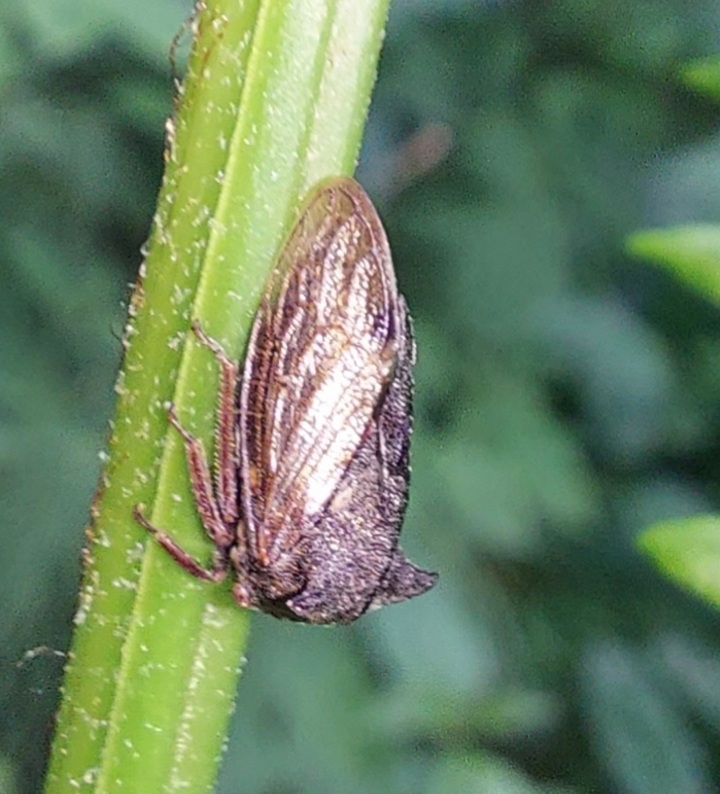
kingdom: Animalia
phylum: Arthropoda
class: Insecta
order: Hemiptera
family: Membracidae
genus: Centrotus
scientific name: Centrotus cornuta
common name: Treehopper
